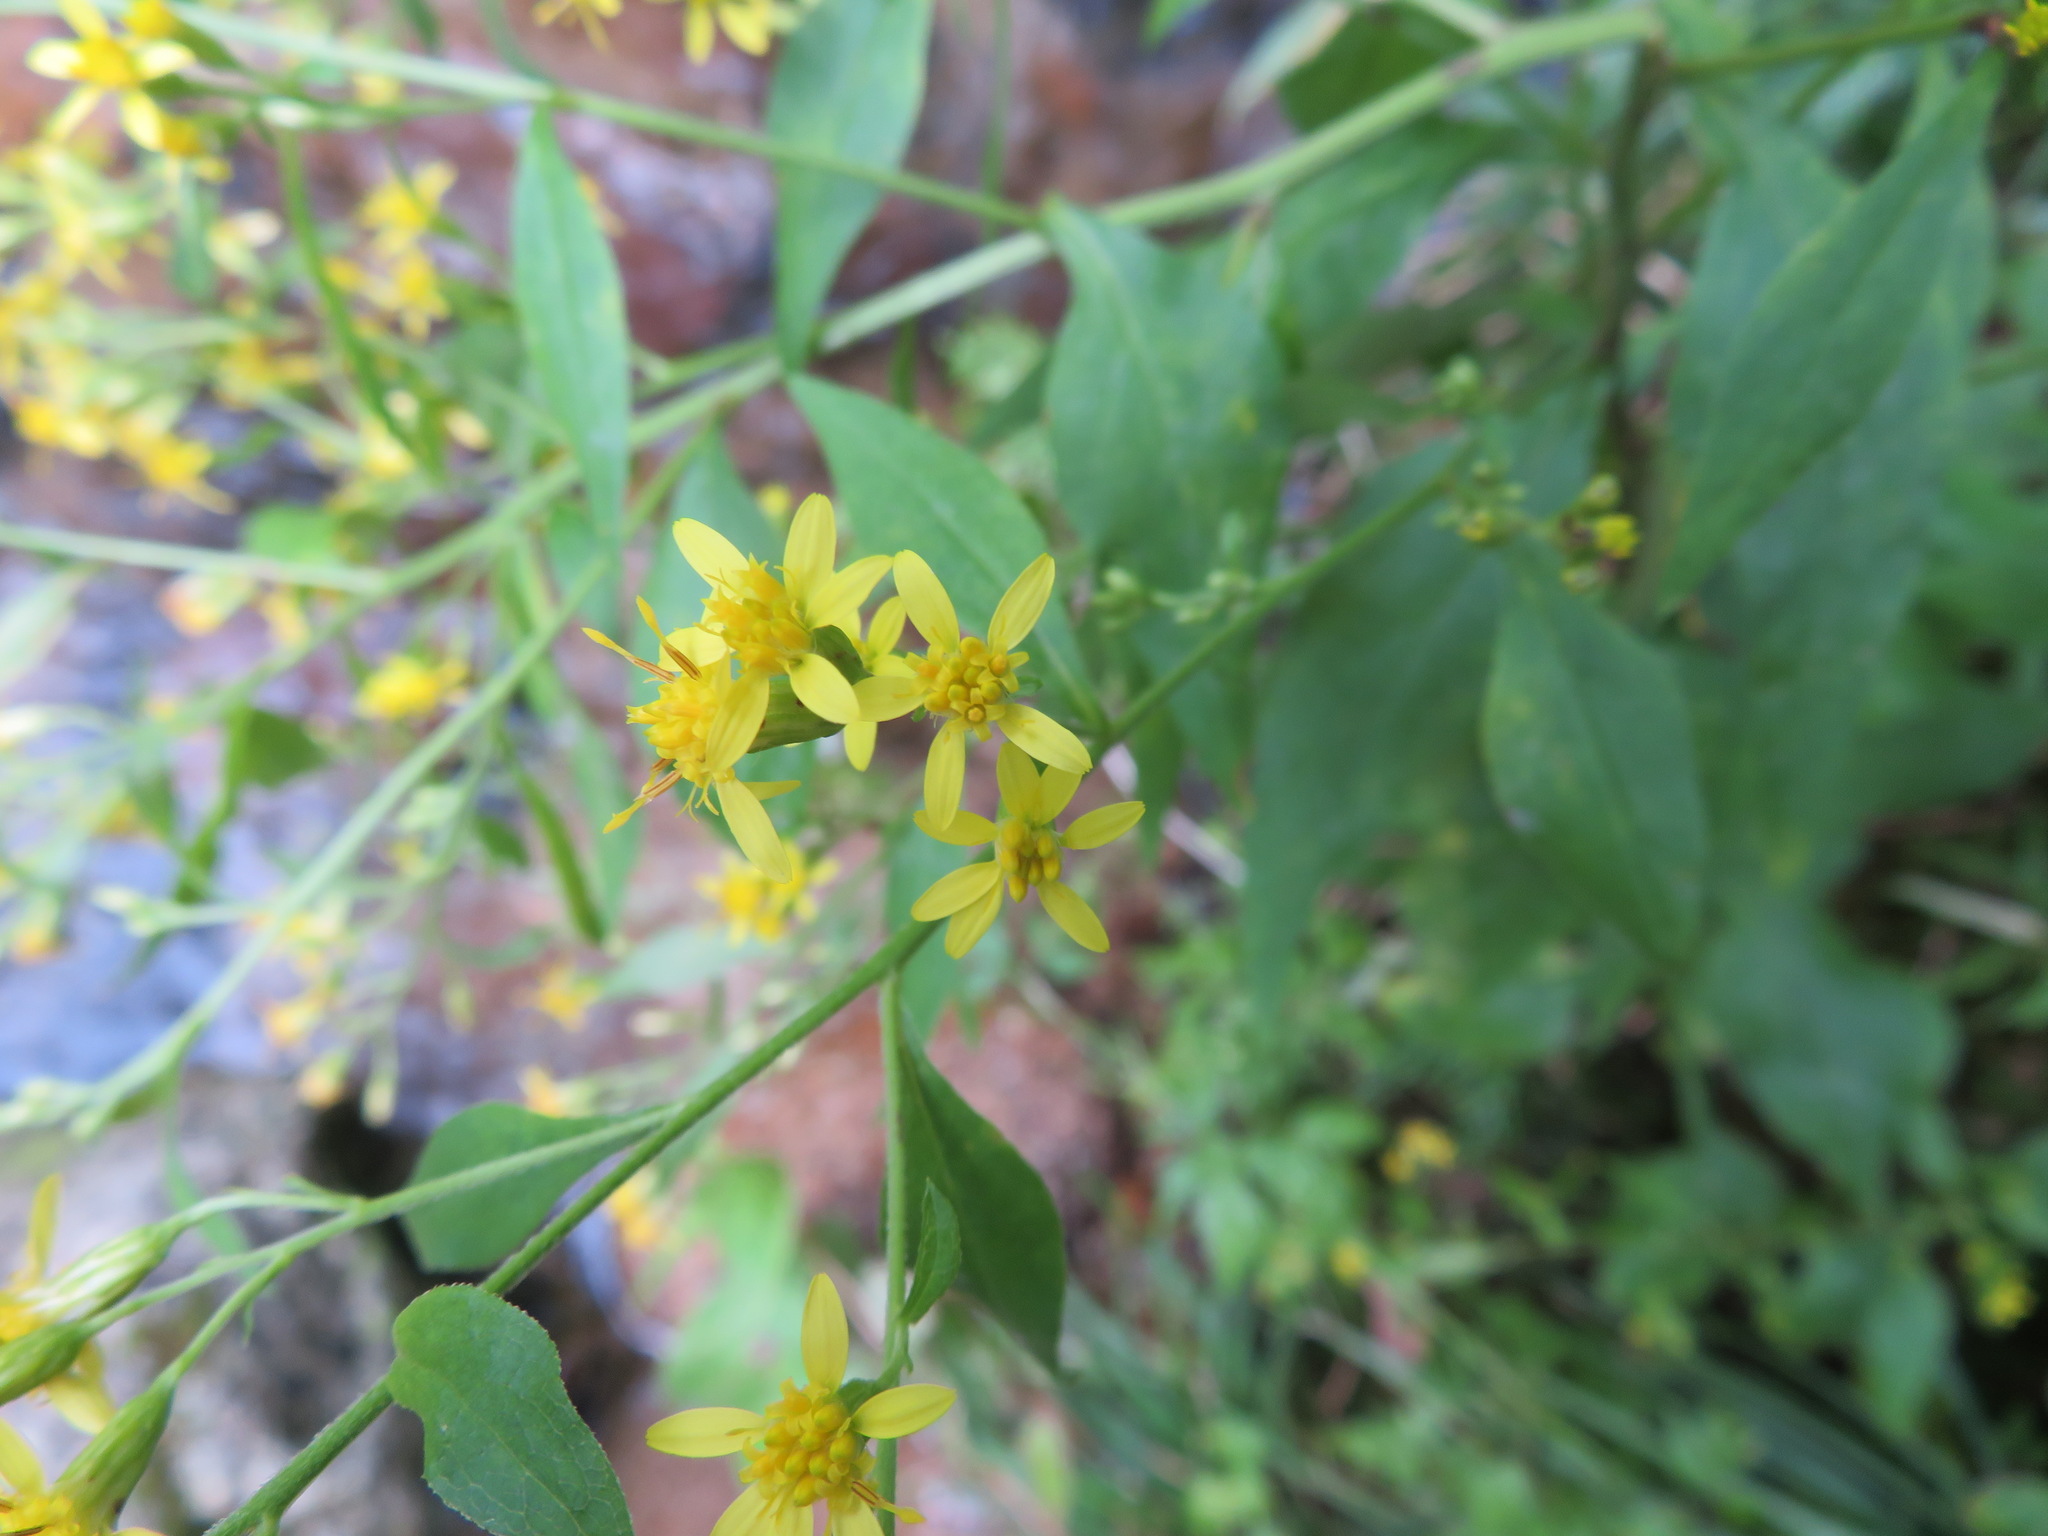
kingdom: Plantae
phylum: Tracheophyta
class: Magnoliopsida
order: Asterales
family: Asteraceae
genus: Solidago
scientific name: Solidago virgaurea
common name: Goldenrod
